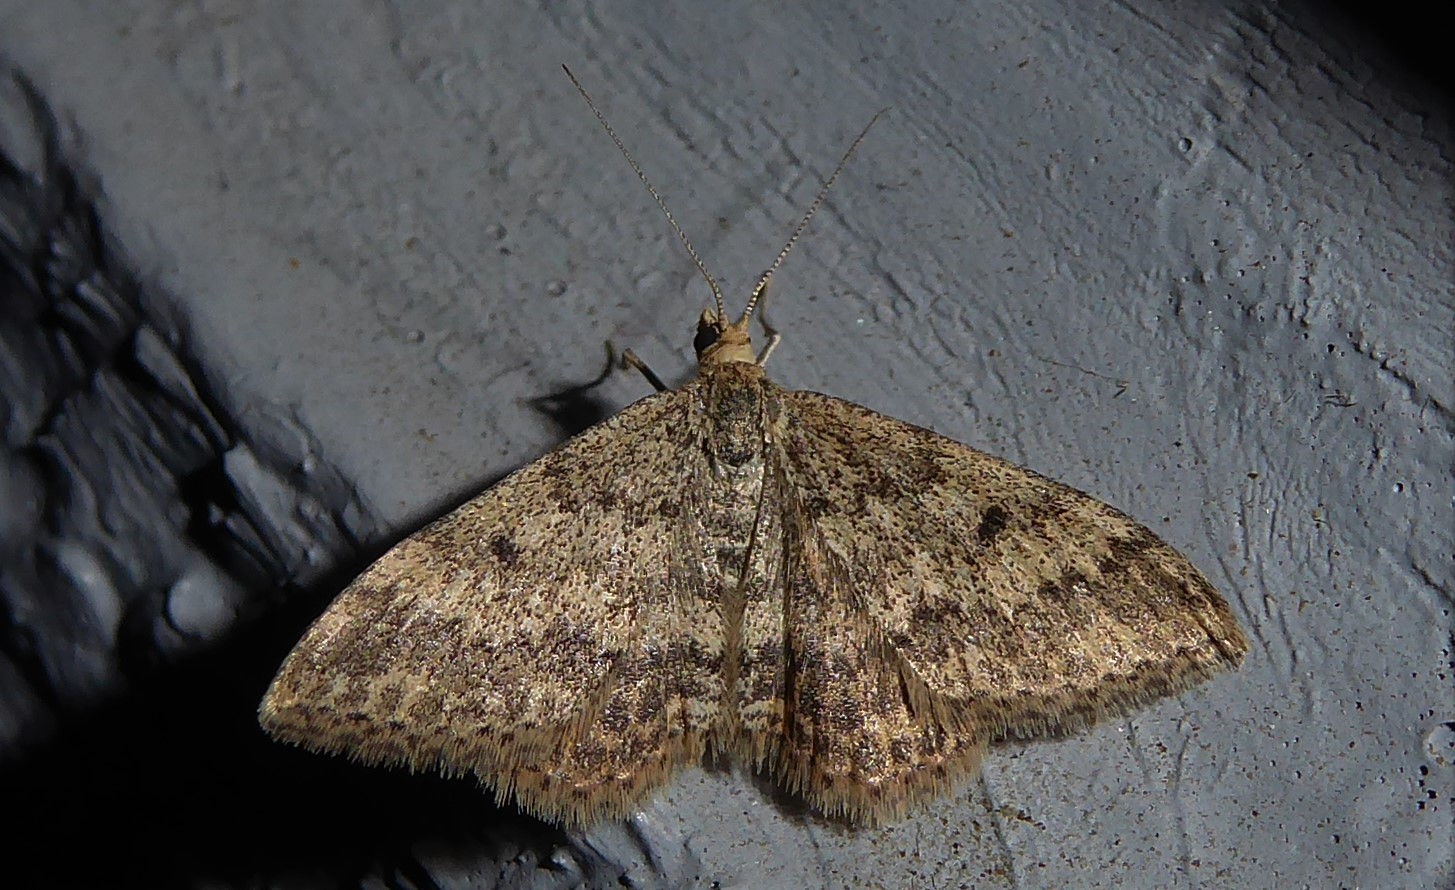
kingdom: Animalia
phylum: Arthropoda
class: Insecta
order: Lepidoptera
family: Geometridae
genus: Scopula
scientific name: Scopula rubraria
